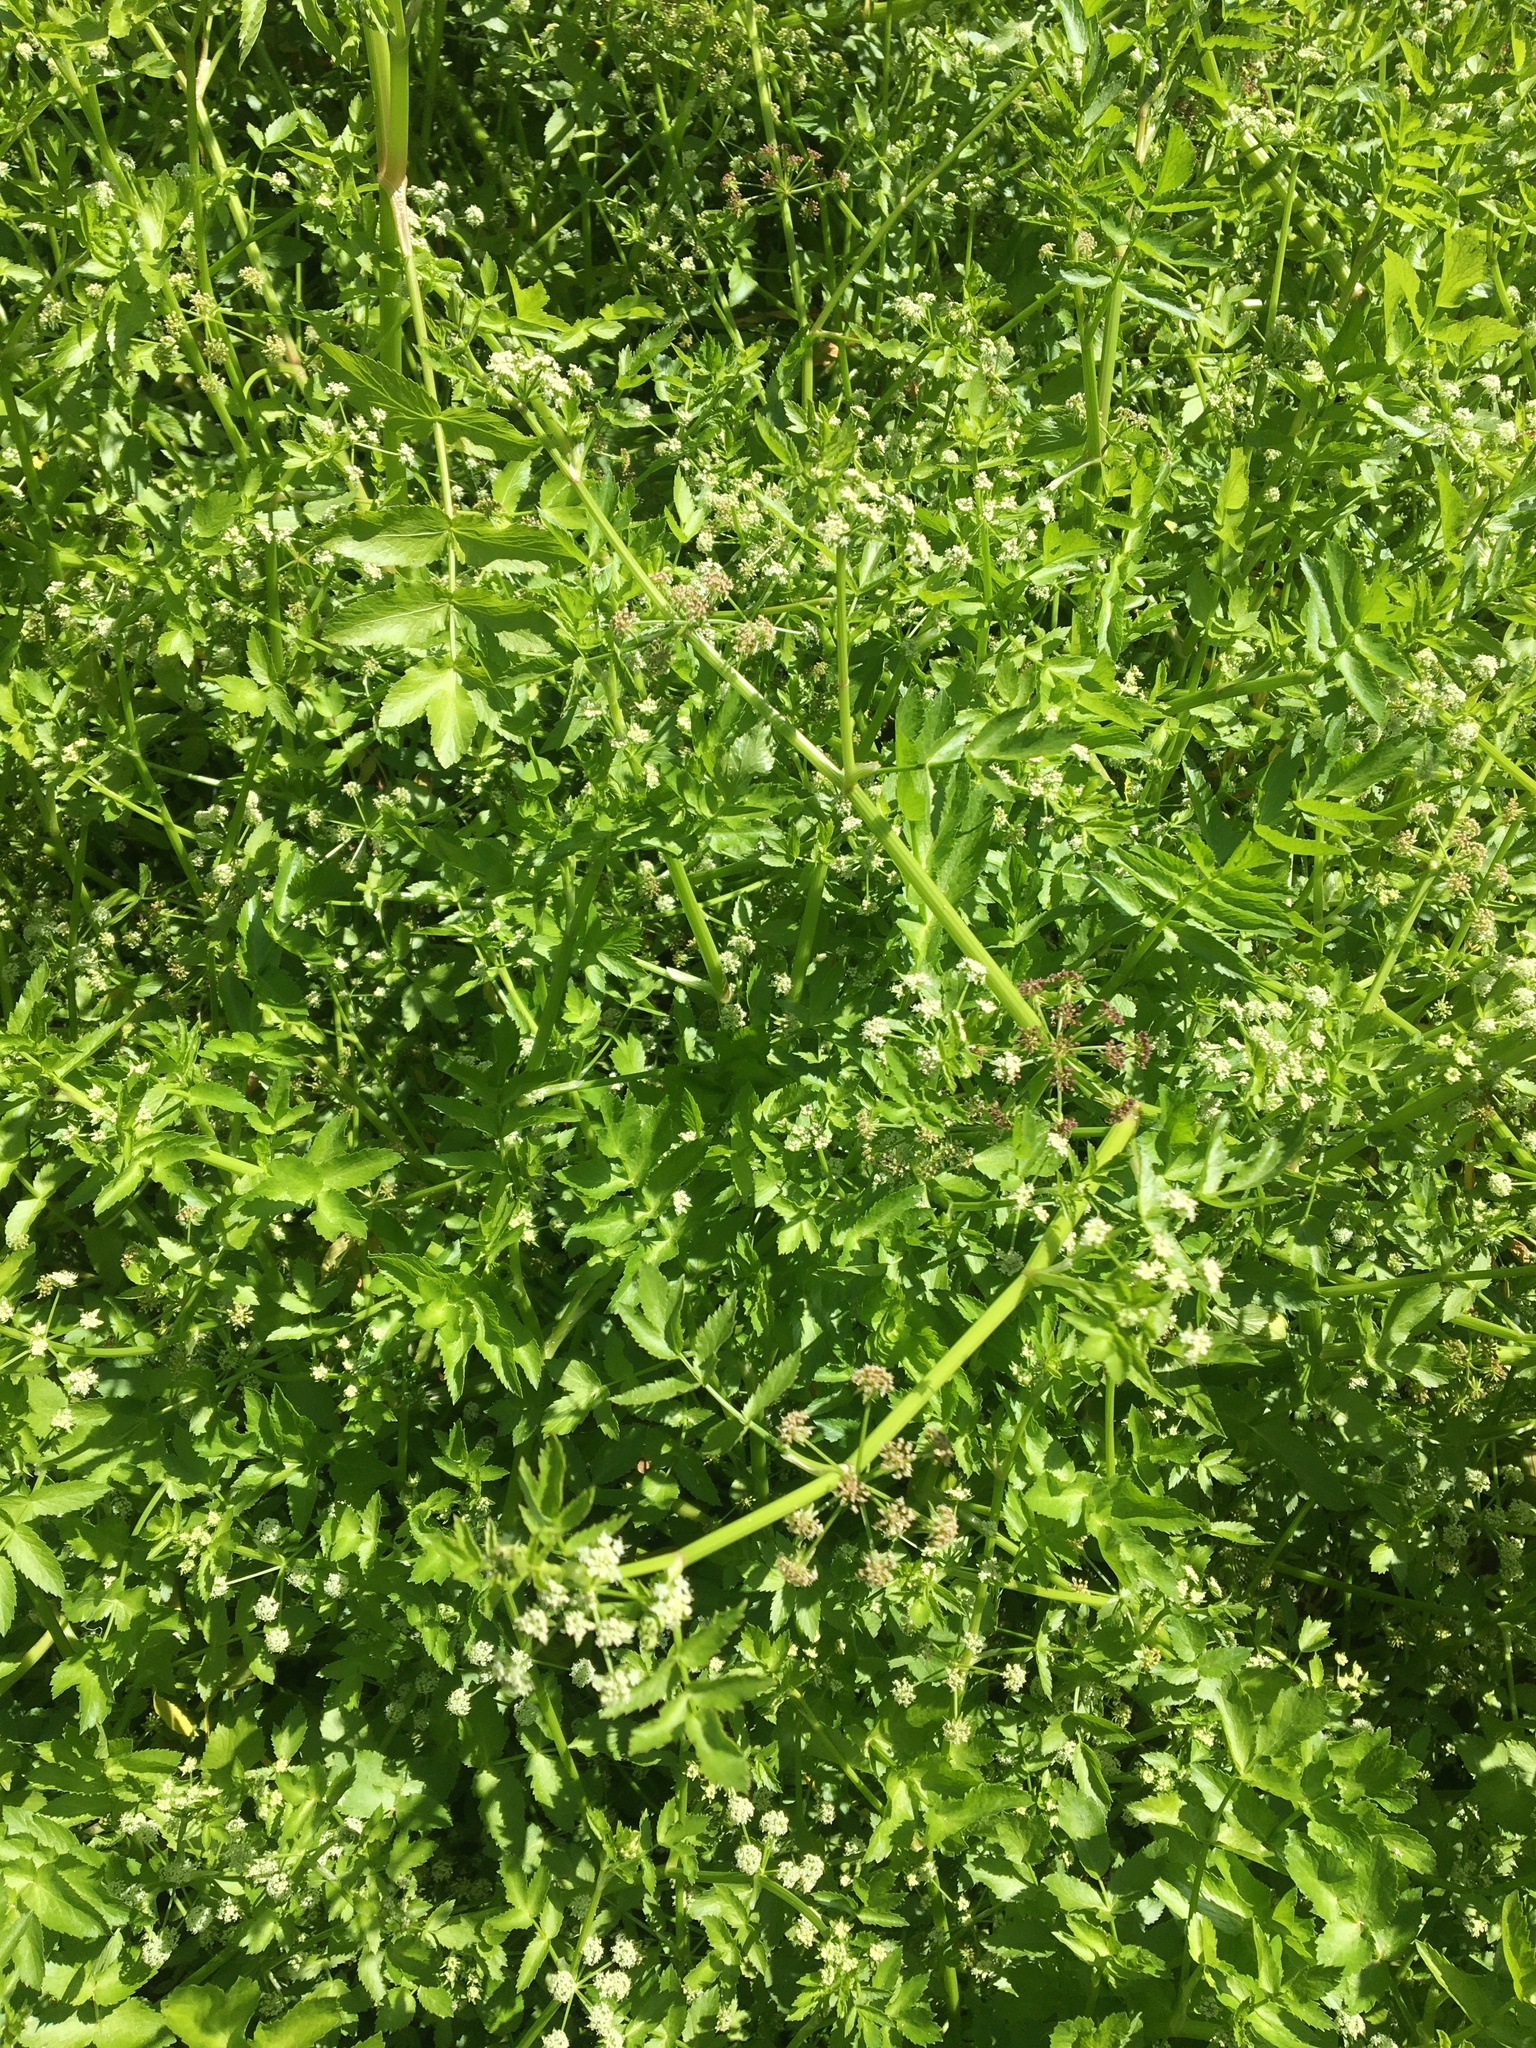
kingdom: Plantae
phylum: Tracheophyta
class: Magnoliopsida
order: Apiales
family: Apiaceae
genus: Helosciadium
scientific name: Helosciadium nodiflorum
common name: Fool's-watercress
